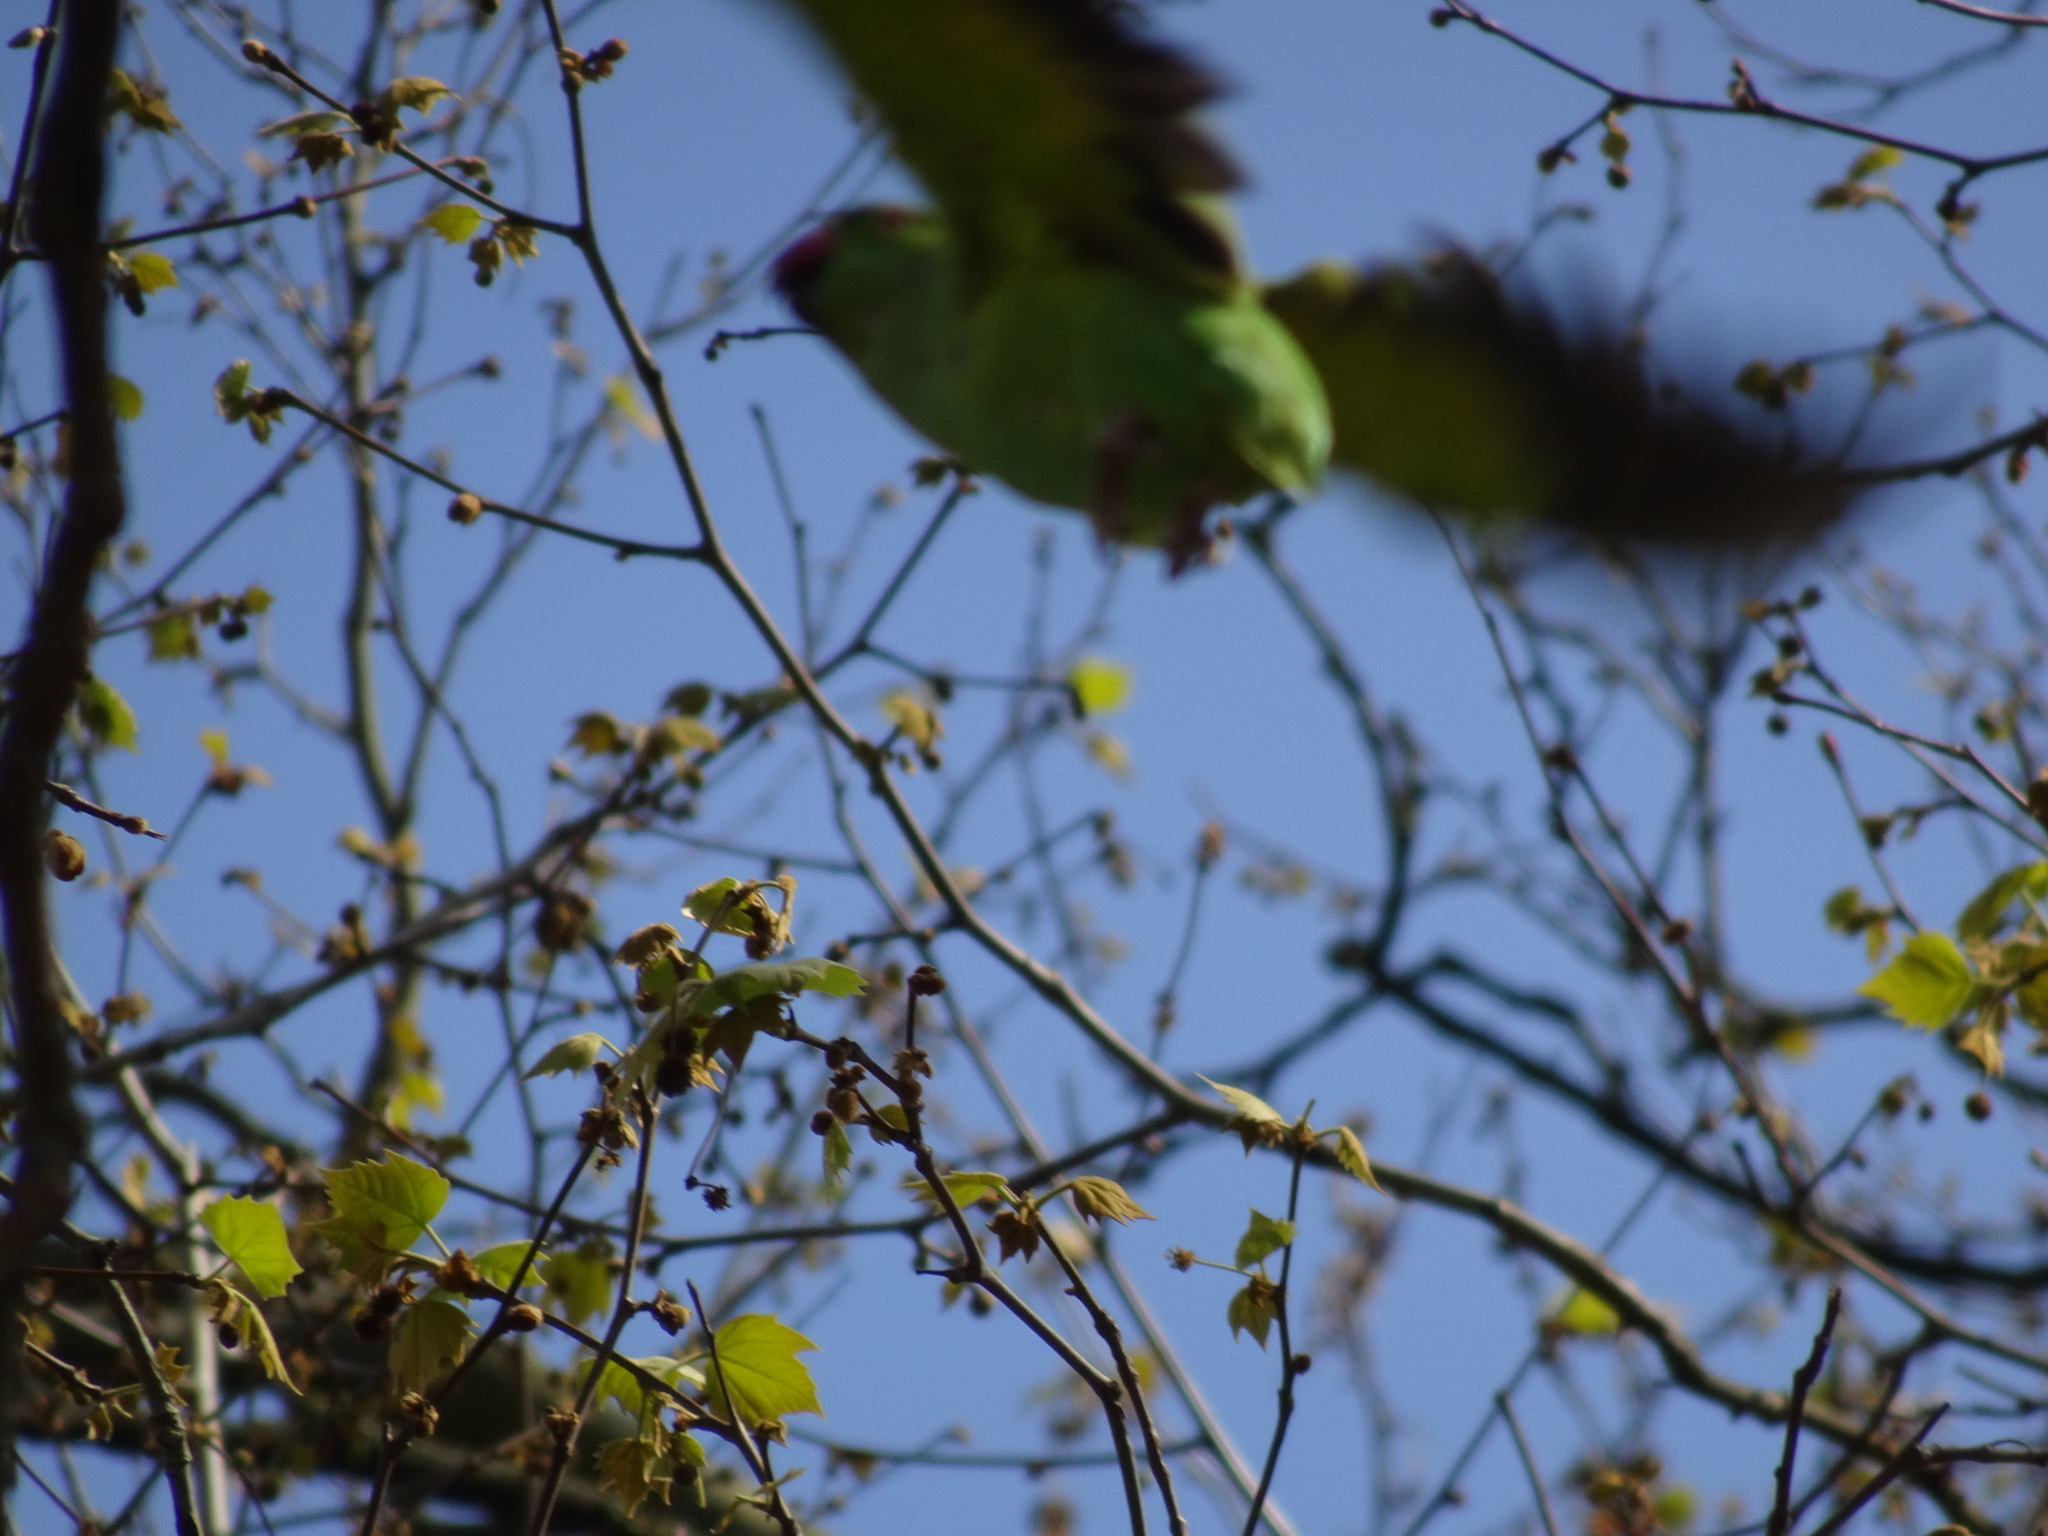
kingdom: Animalia
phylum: Chordata
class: Aves
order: Psittaciformes
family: Psittacidae
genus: Psittacula
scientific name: Psittacula krameri
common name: Rose-ringed parakeet
